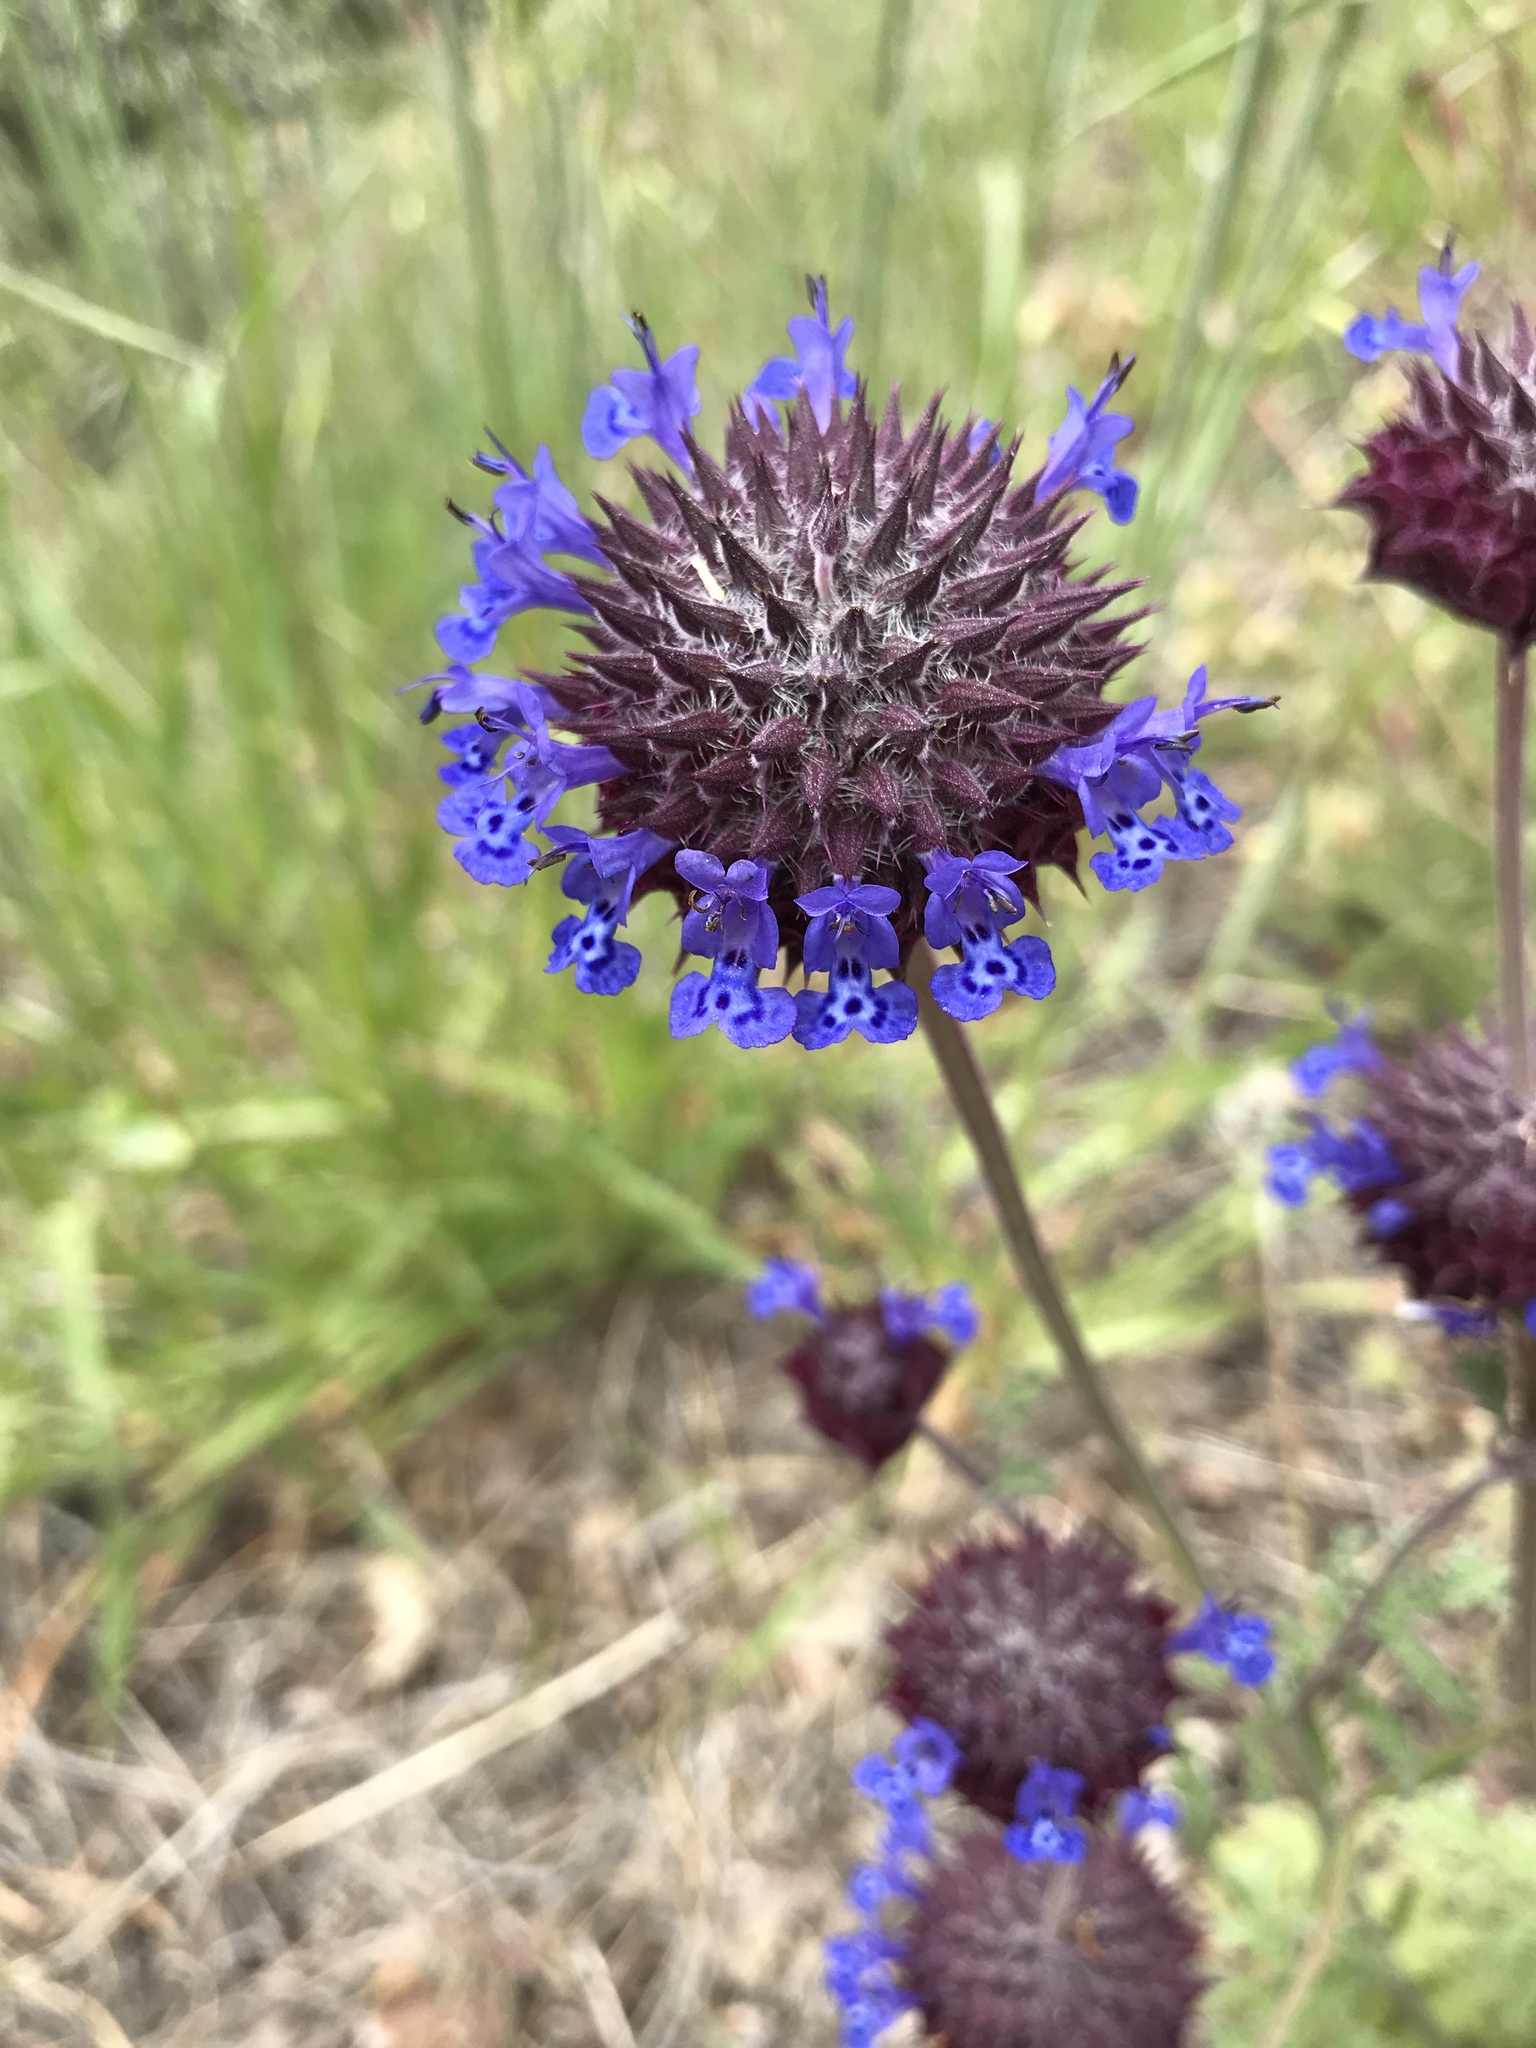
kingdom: Plantae
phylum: Tracheophyta
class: Magnoliopsida
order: Lamiales
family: Lamiaceae
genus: Salvia
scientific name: Salvia columbariae
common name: Chia
